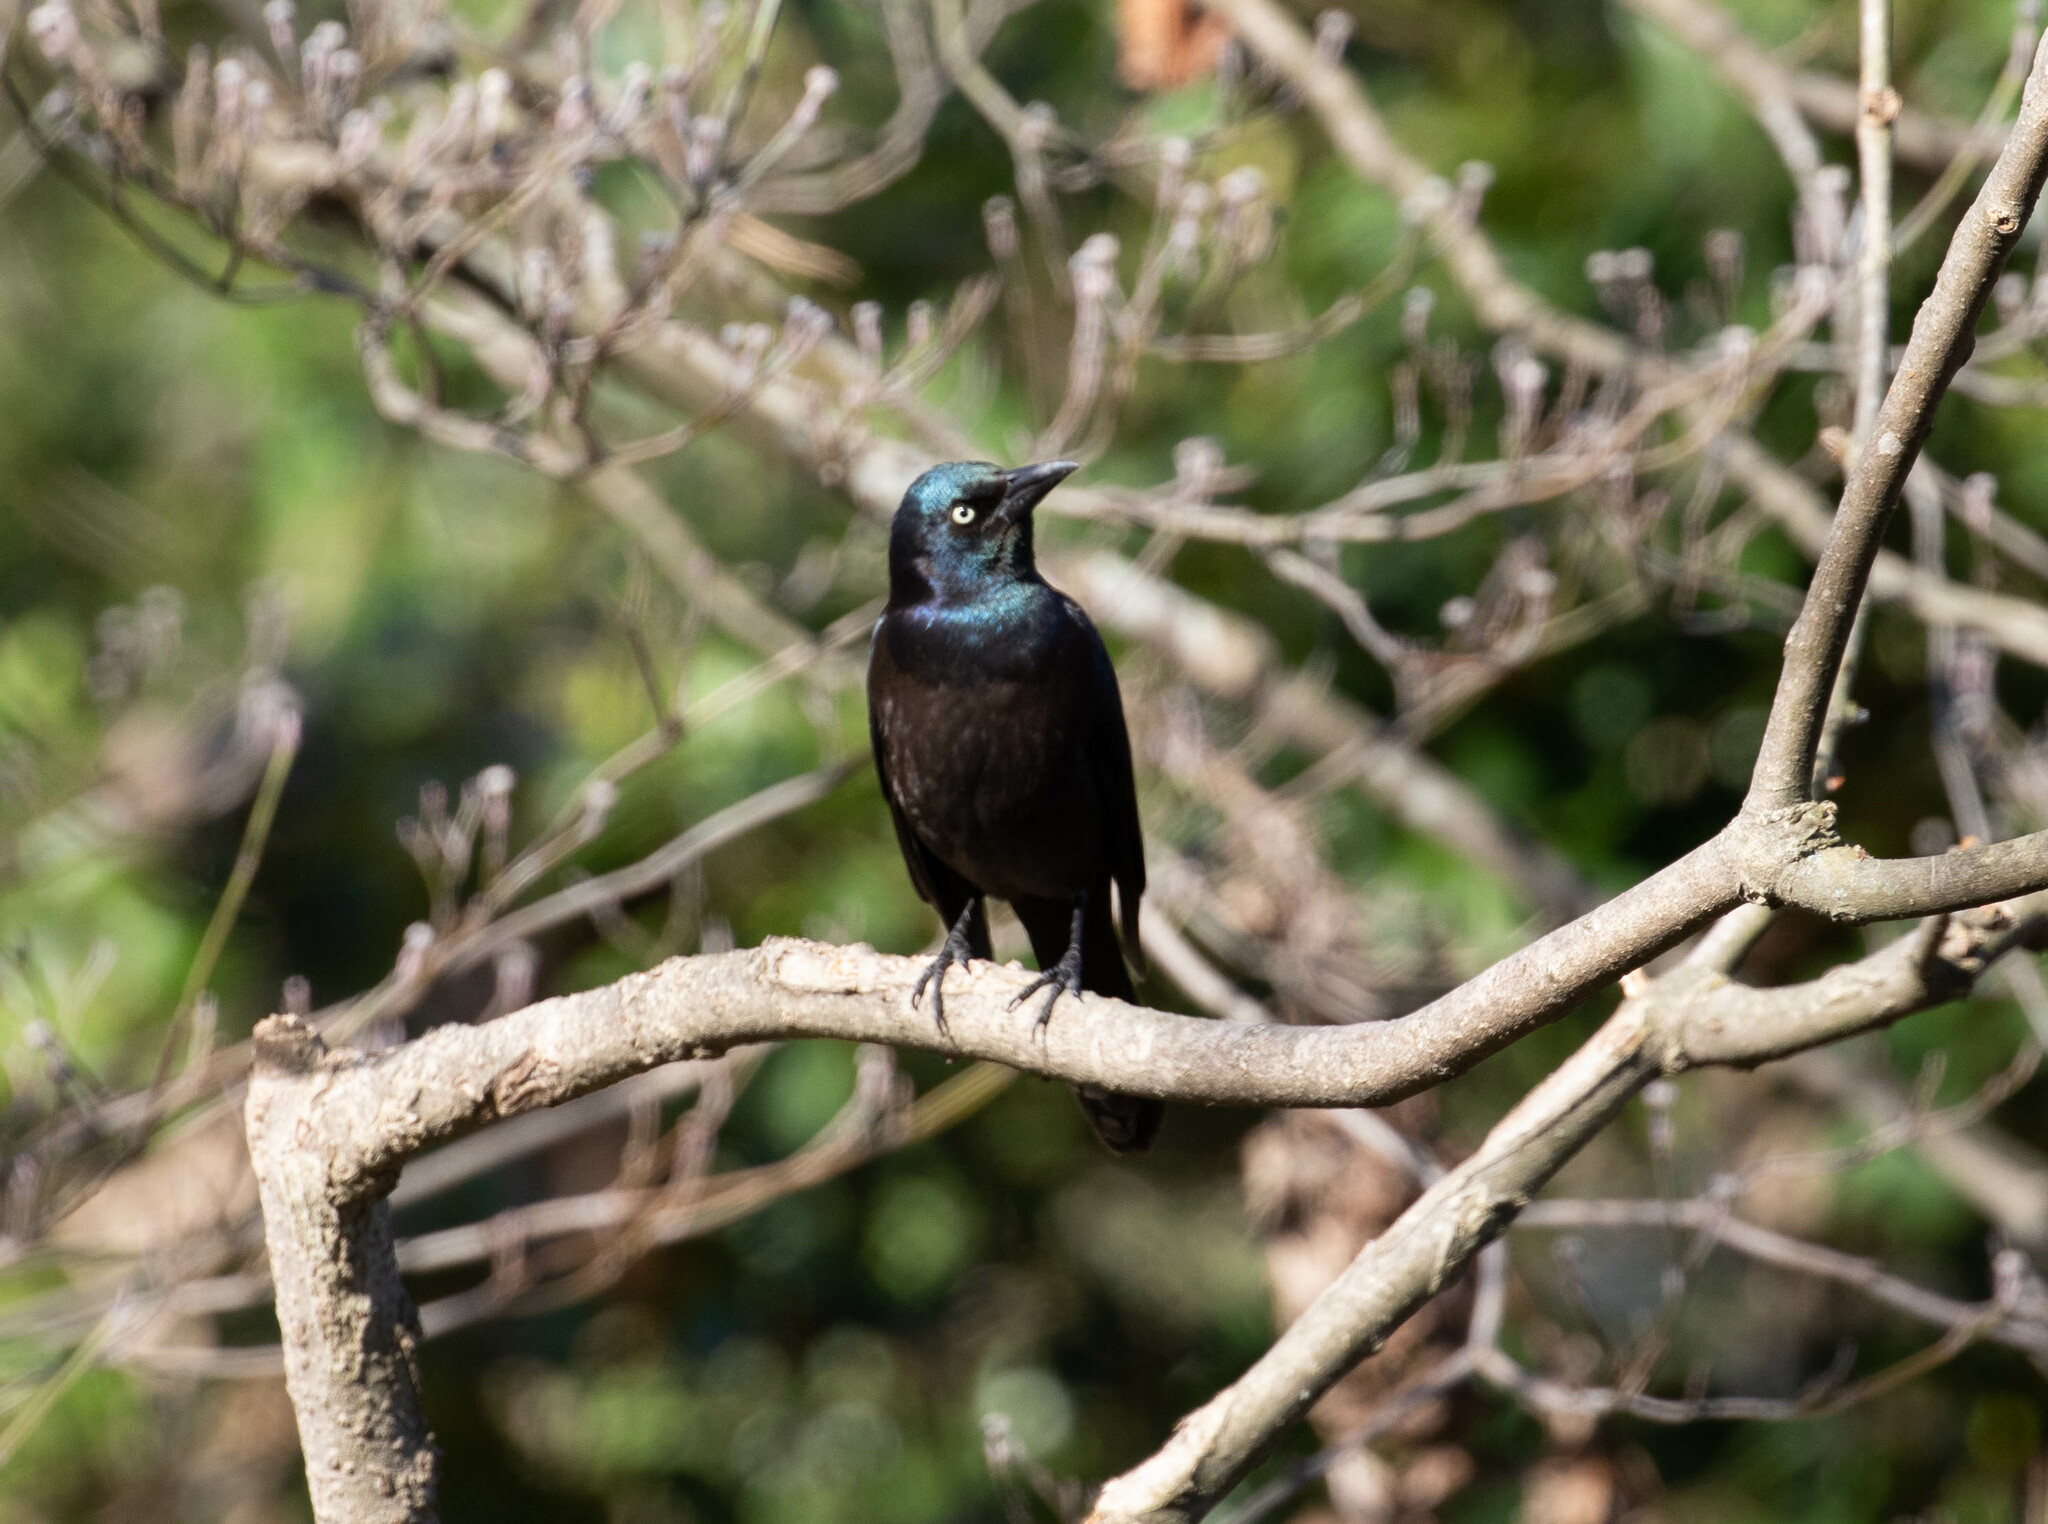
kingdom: Animalia
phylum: Chordata
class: Aves
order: Passeriformes
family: Icteridae
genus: Quiscalus
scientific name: Quiscalus quiscula
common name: Common grackle
